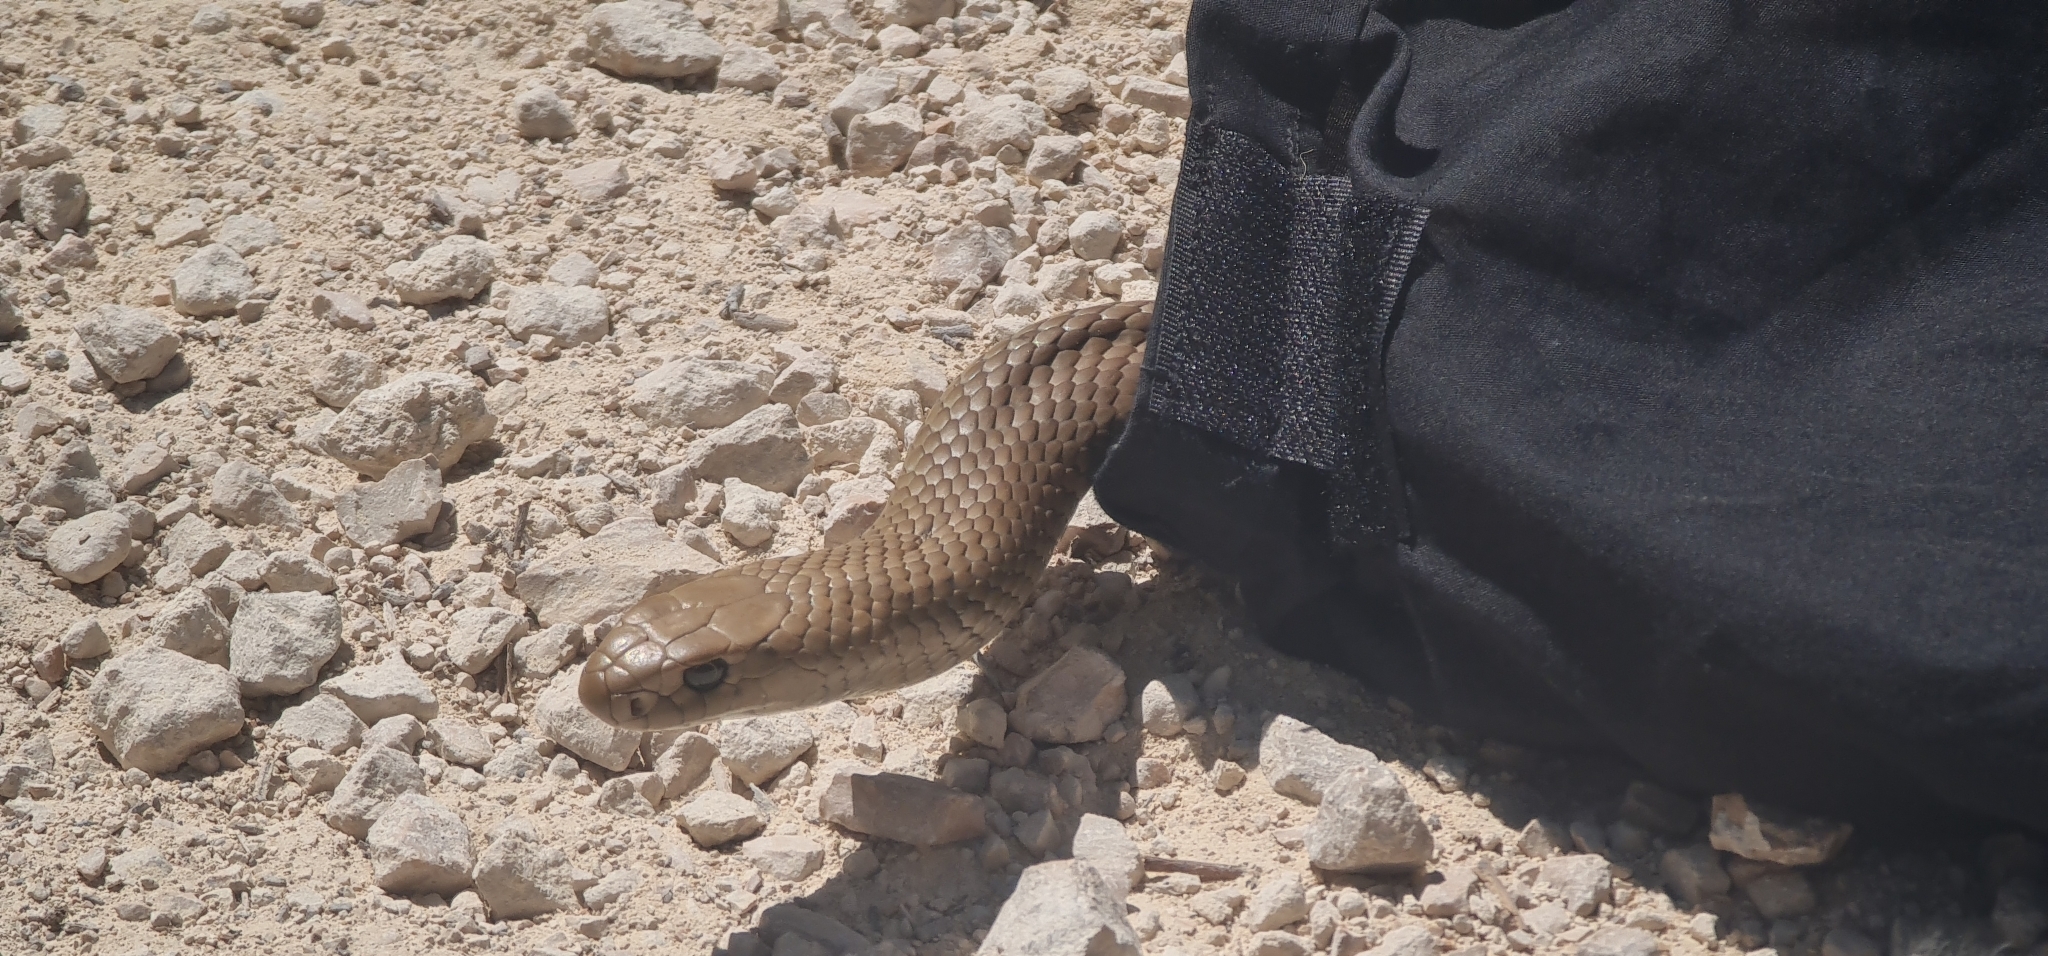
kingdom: Animalia
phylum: Chordata
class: Squamata
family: Elapidae
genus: Pseudonaja
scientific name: Pseudonaja textilis
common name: Eastern brown snake
